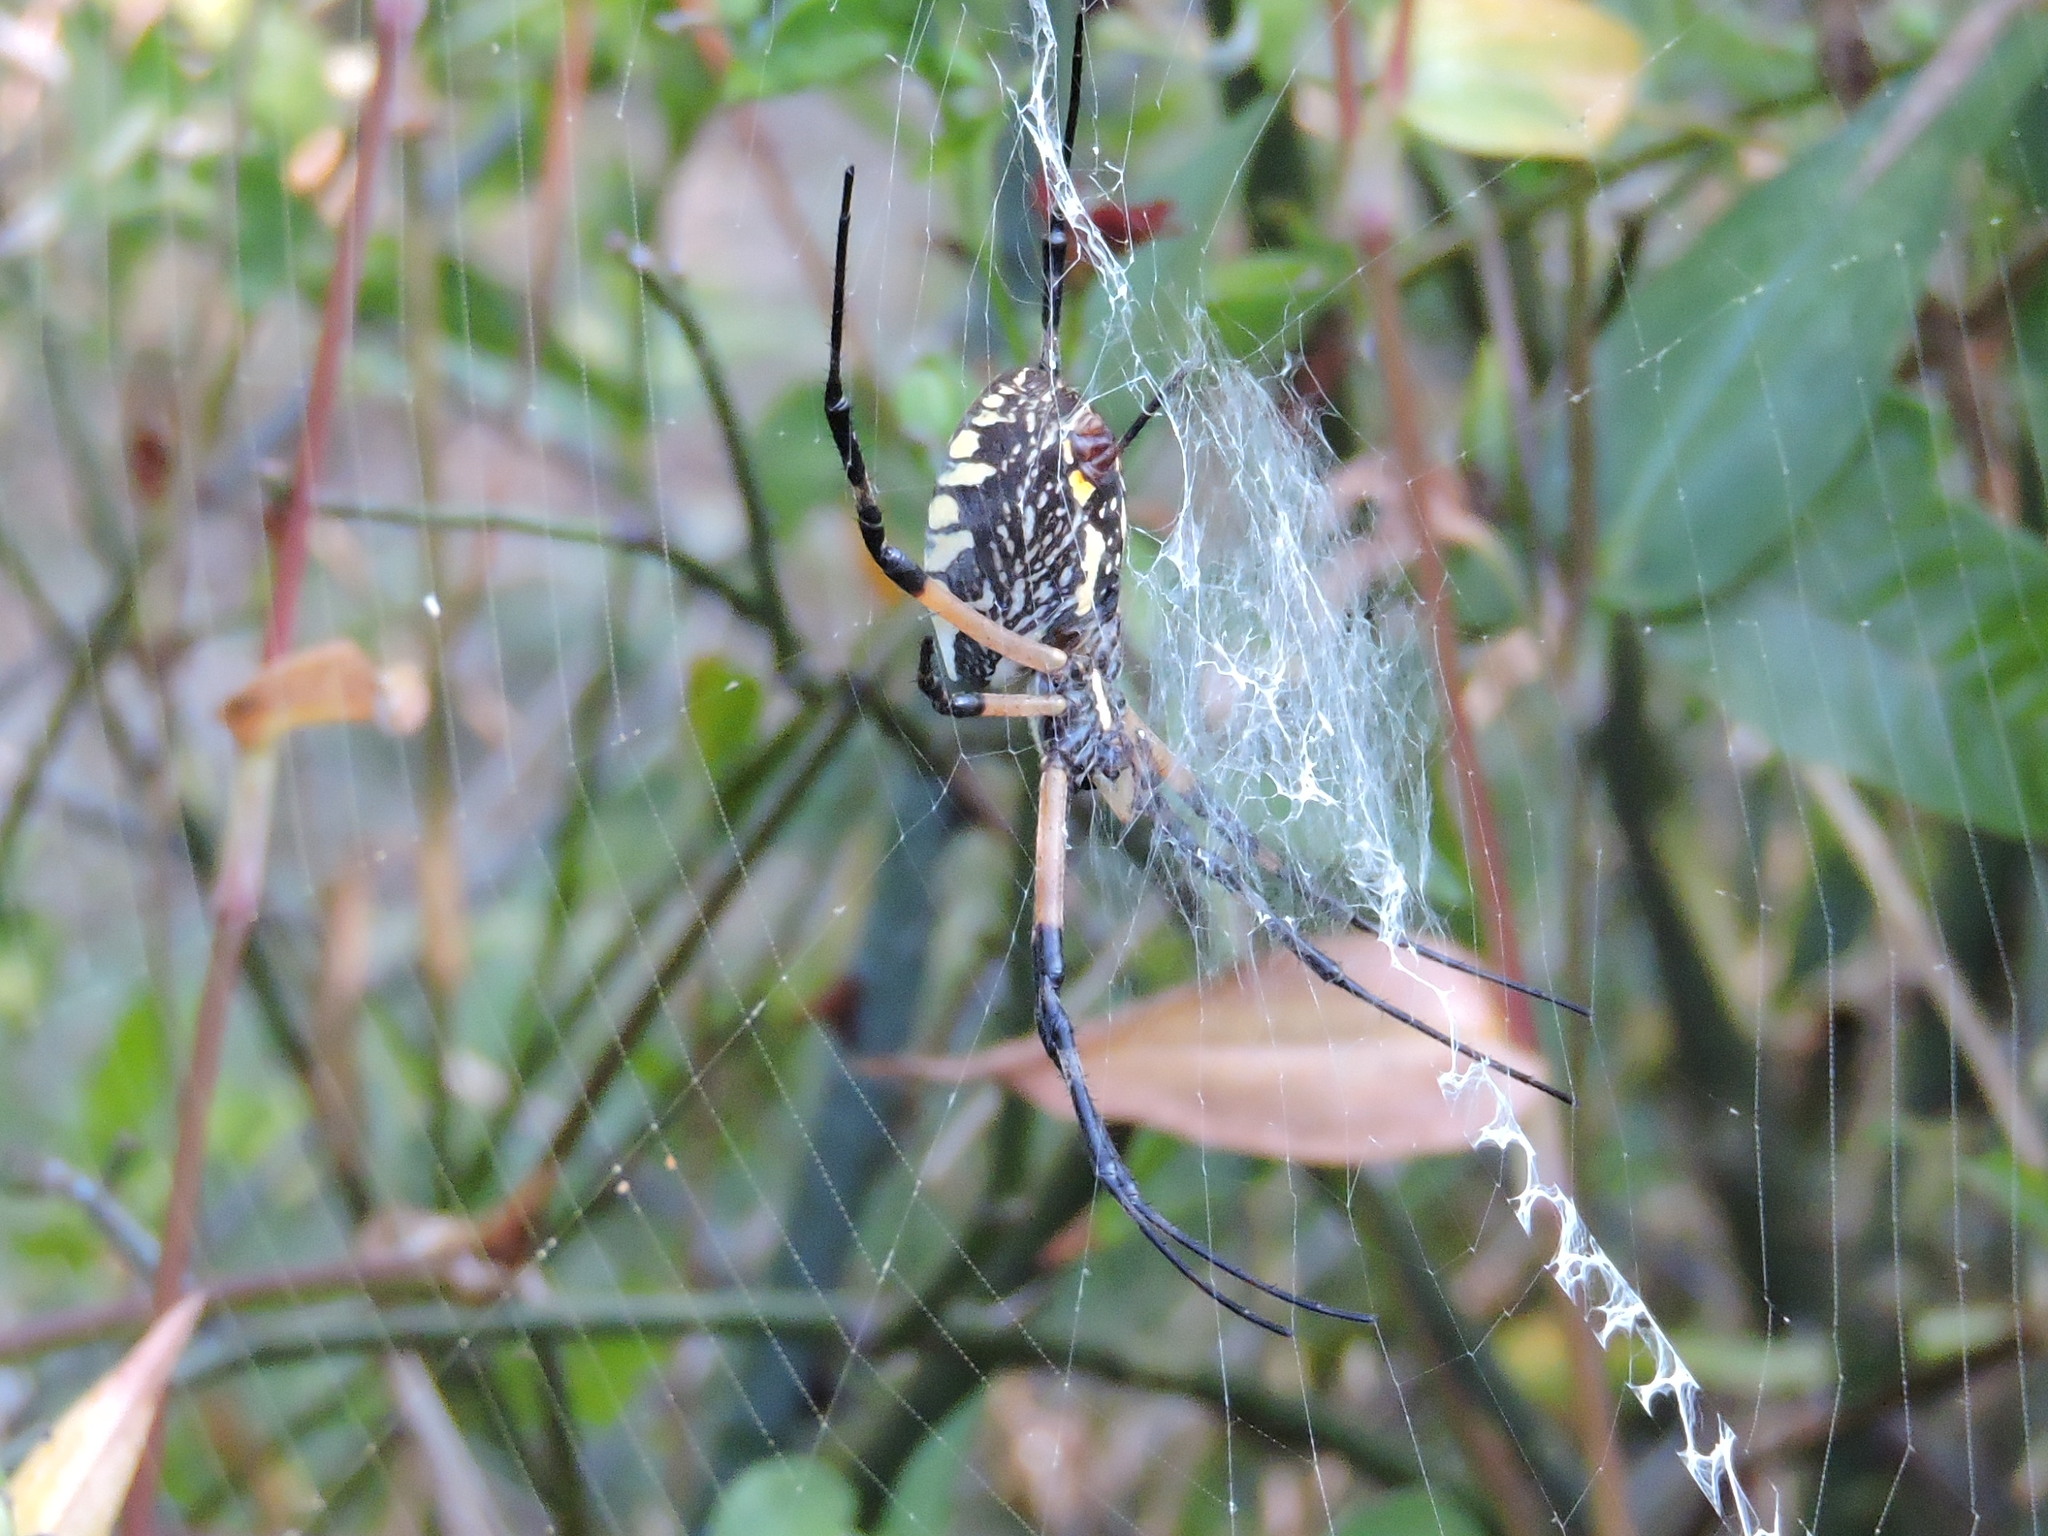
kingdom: Animalia
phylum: Arthropoda
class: Arachnida
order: Araneae
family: Araneidae
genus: Argiope
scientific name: Argiope aurantia
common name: Orb weavers
